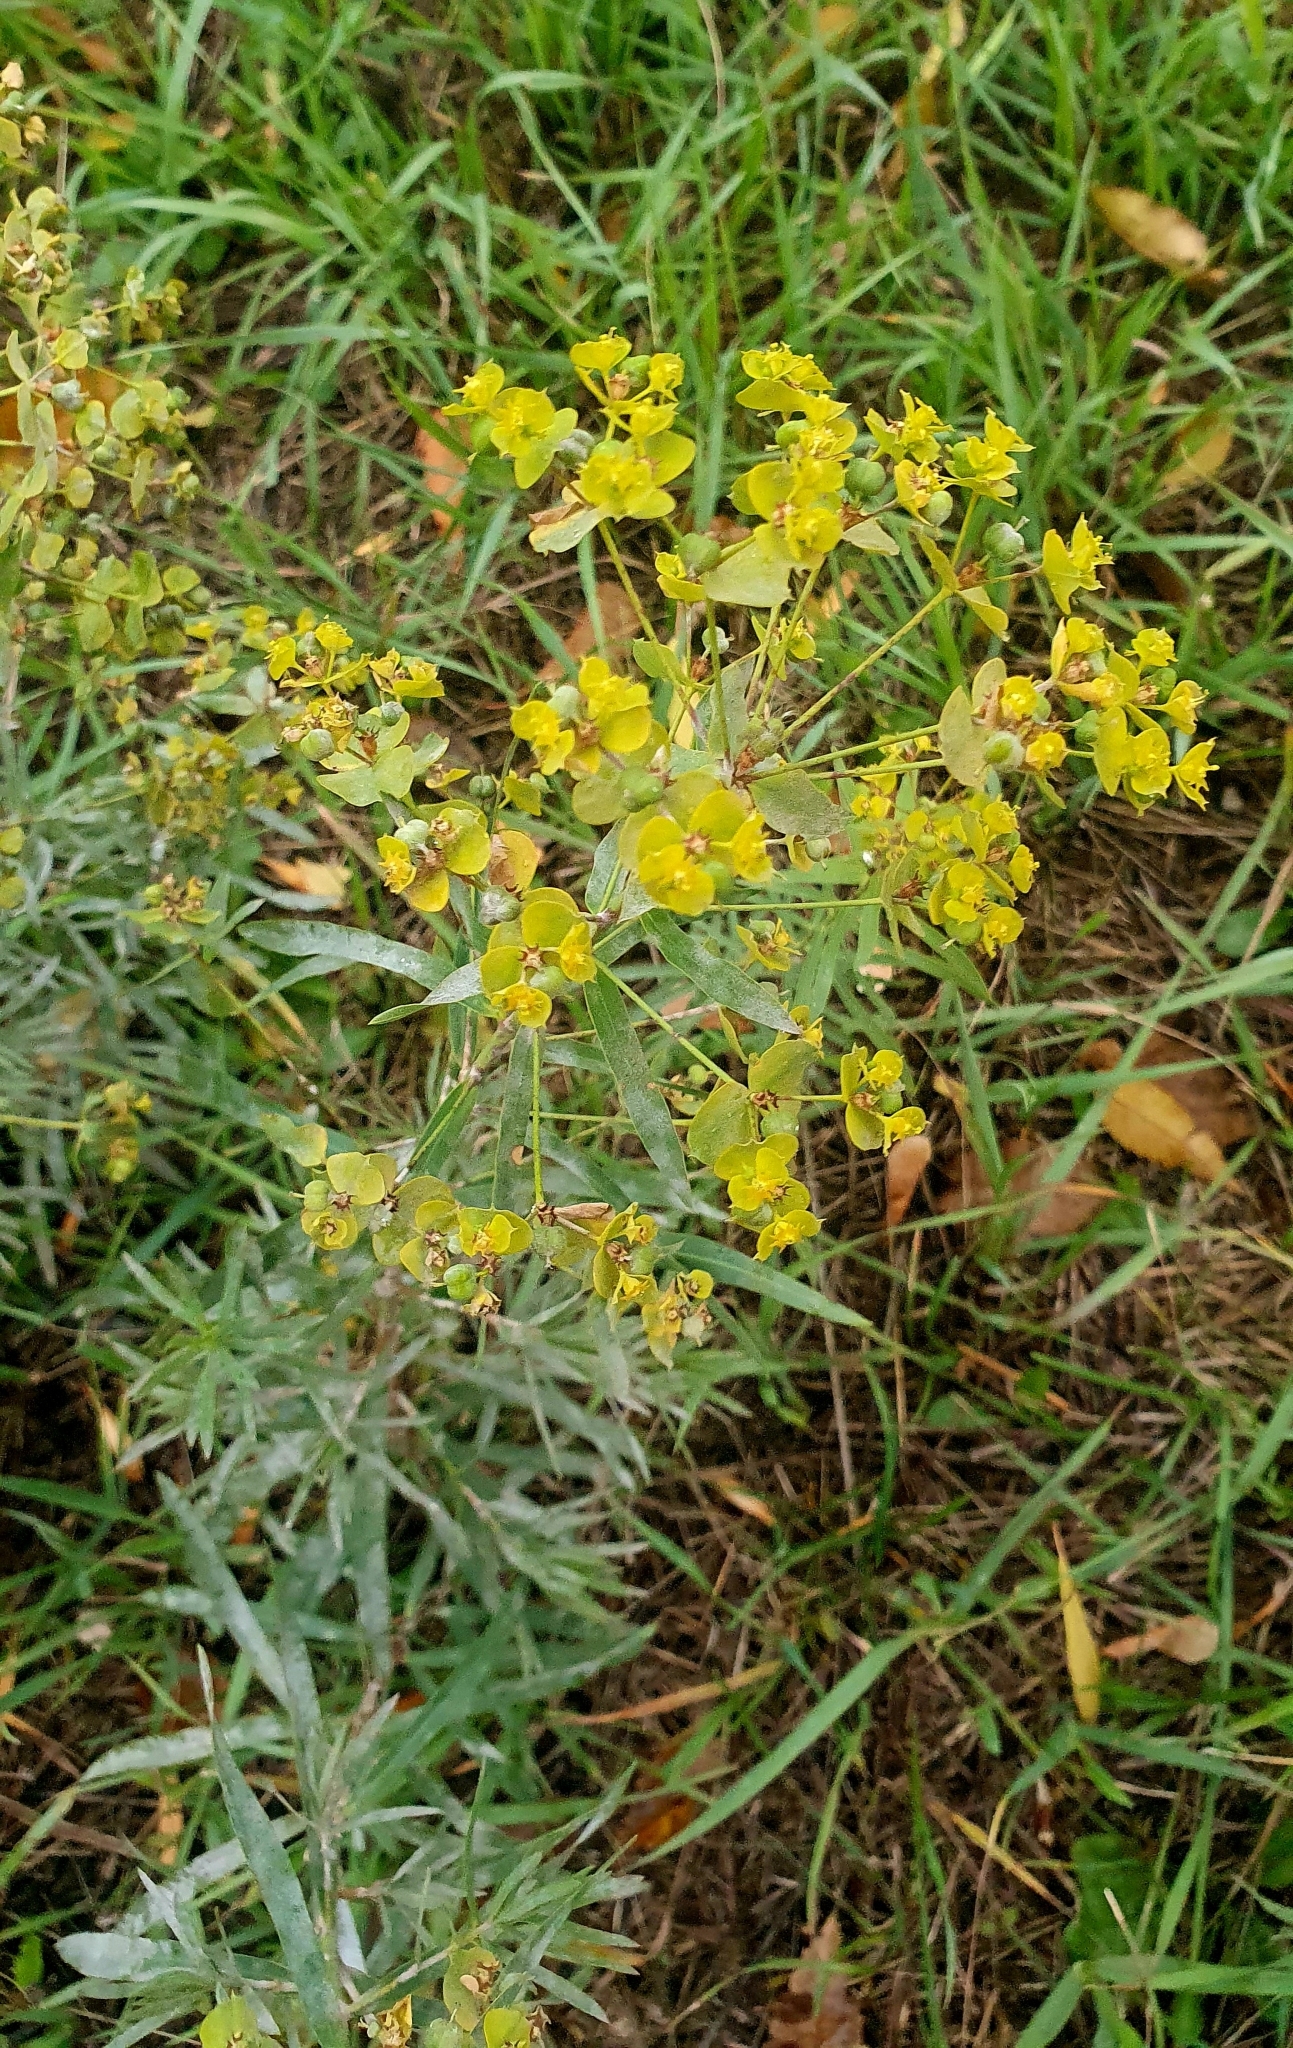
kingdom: Plantae
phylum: Tracheophyta
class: Magnoliopsida
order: Malpighiales
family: Euphorbiaceae
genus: Euphorbia
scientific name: Euphorbia virgata
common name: Leafy spurge
